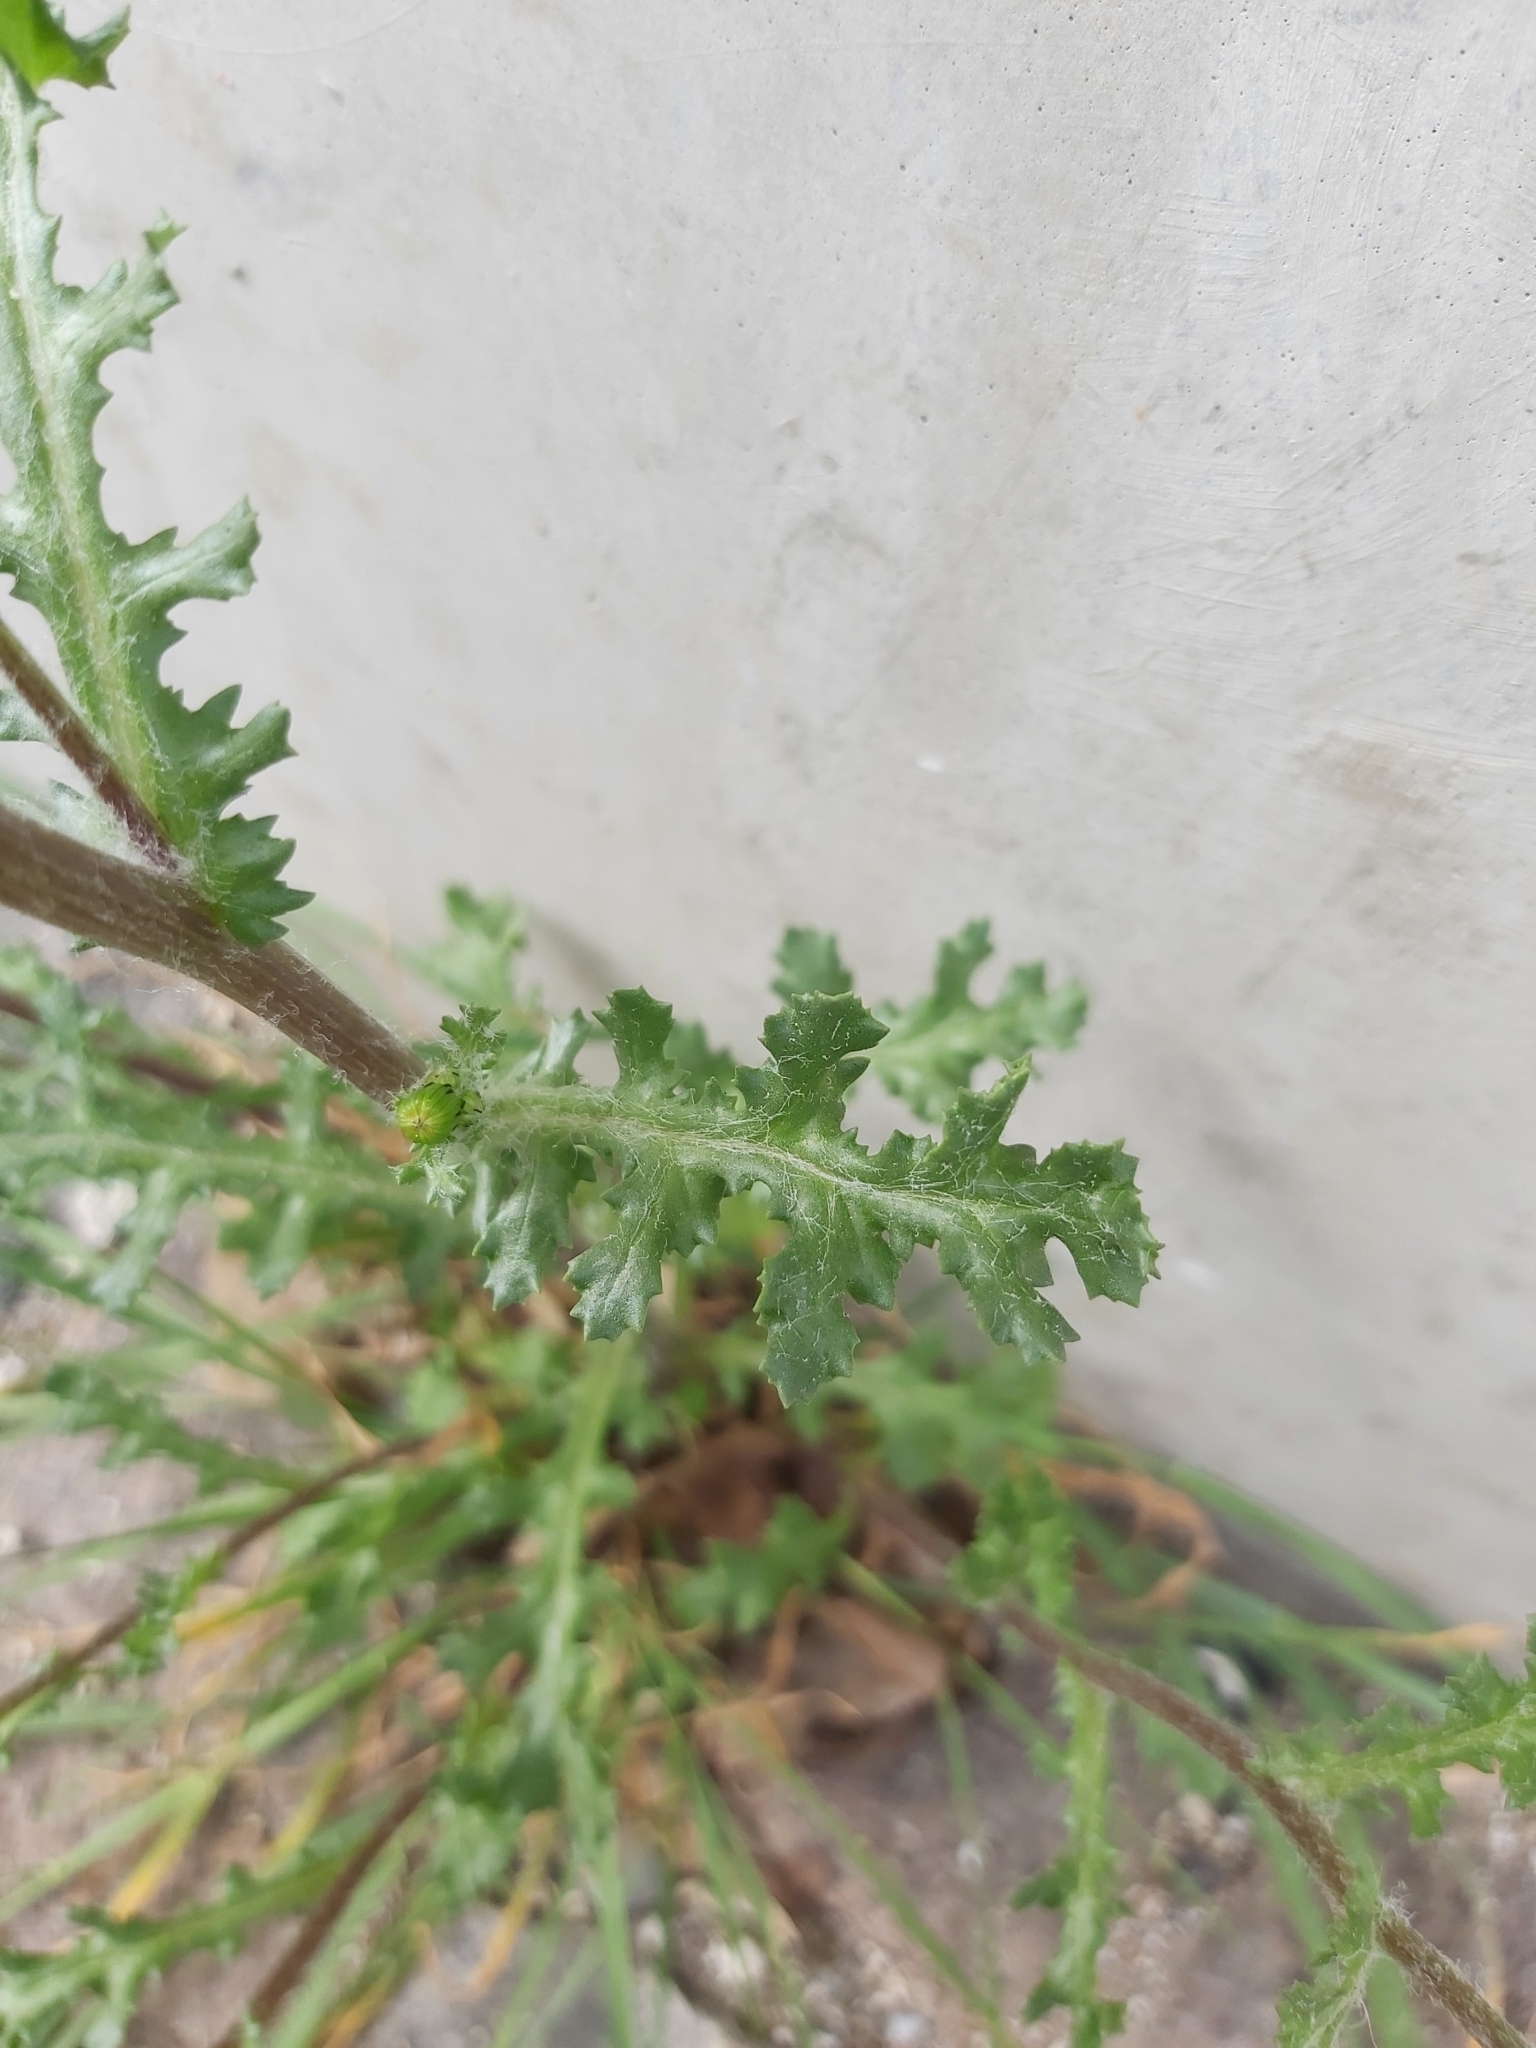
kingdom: Plantae
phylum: Tracheophyta
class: Magnoliopsida
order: Asterales
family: Asteraceae
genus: Senecio
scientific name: Senecio vulgaris
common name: Old-man-in-the-spring
